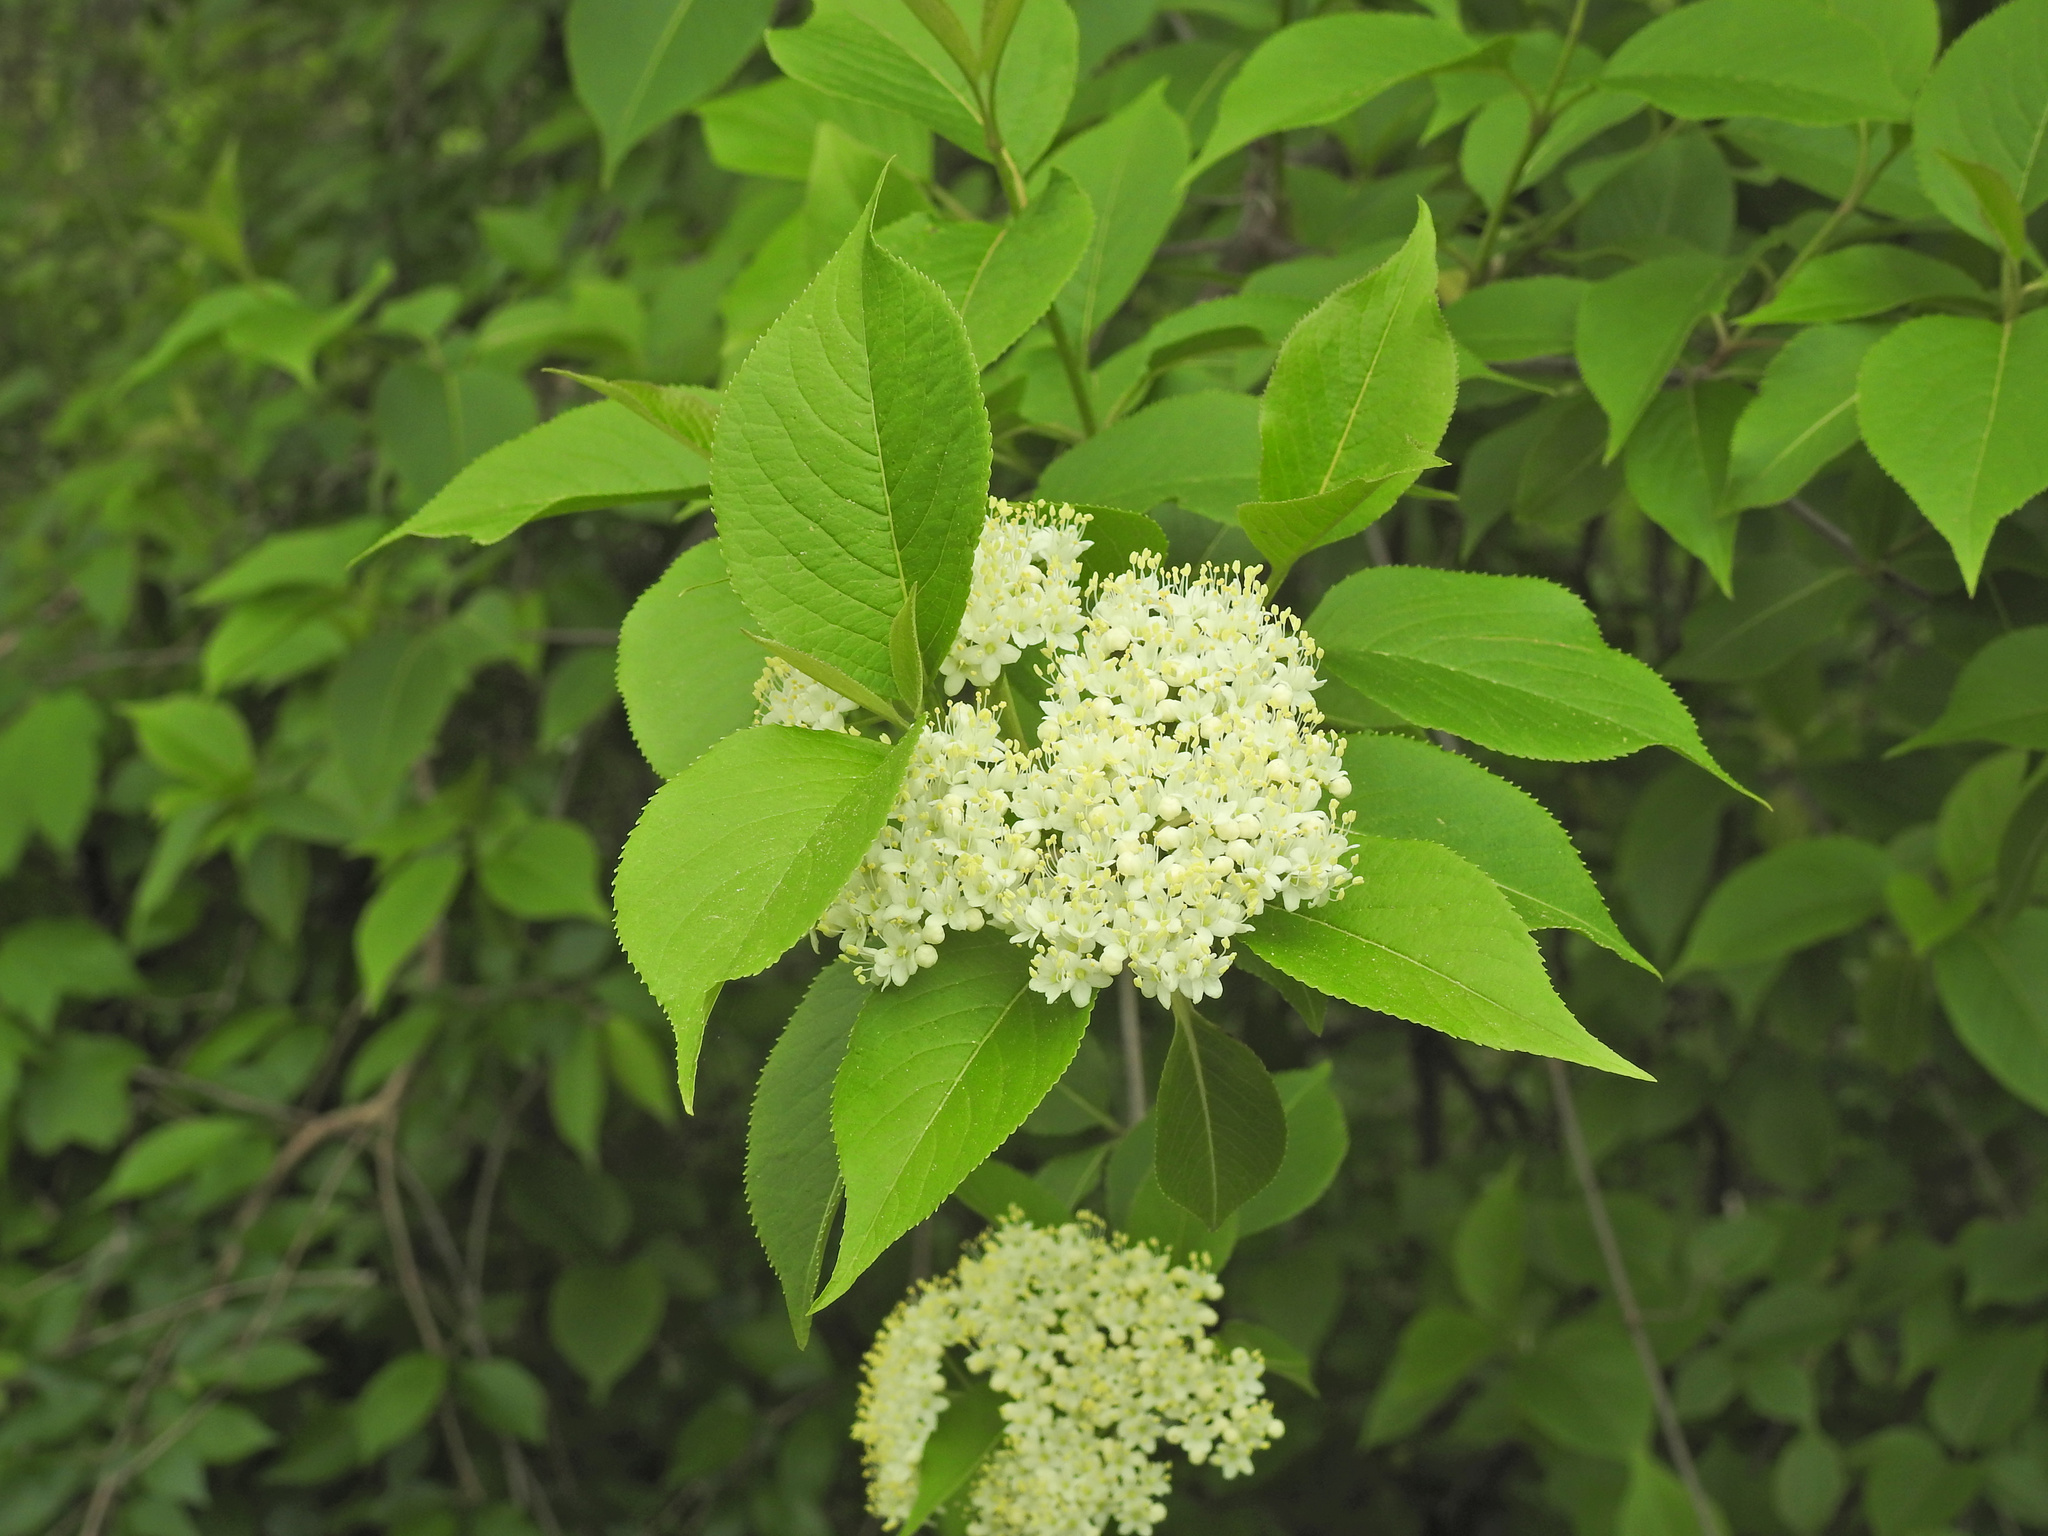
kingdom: Plantae
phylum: Tracheophyta
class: Magnoliopsida
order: Dipsacales
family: Viburnaceae
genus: Viburnum
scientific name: Viburnum lentago
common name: Black haw
